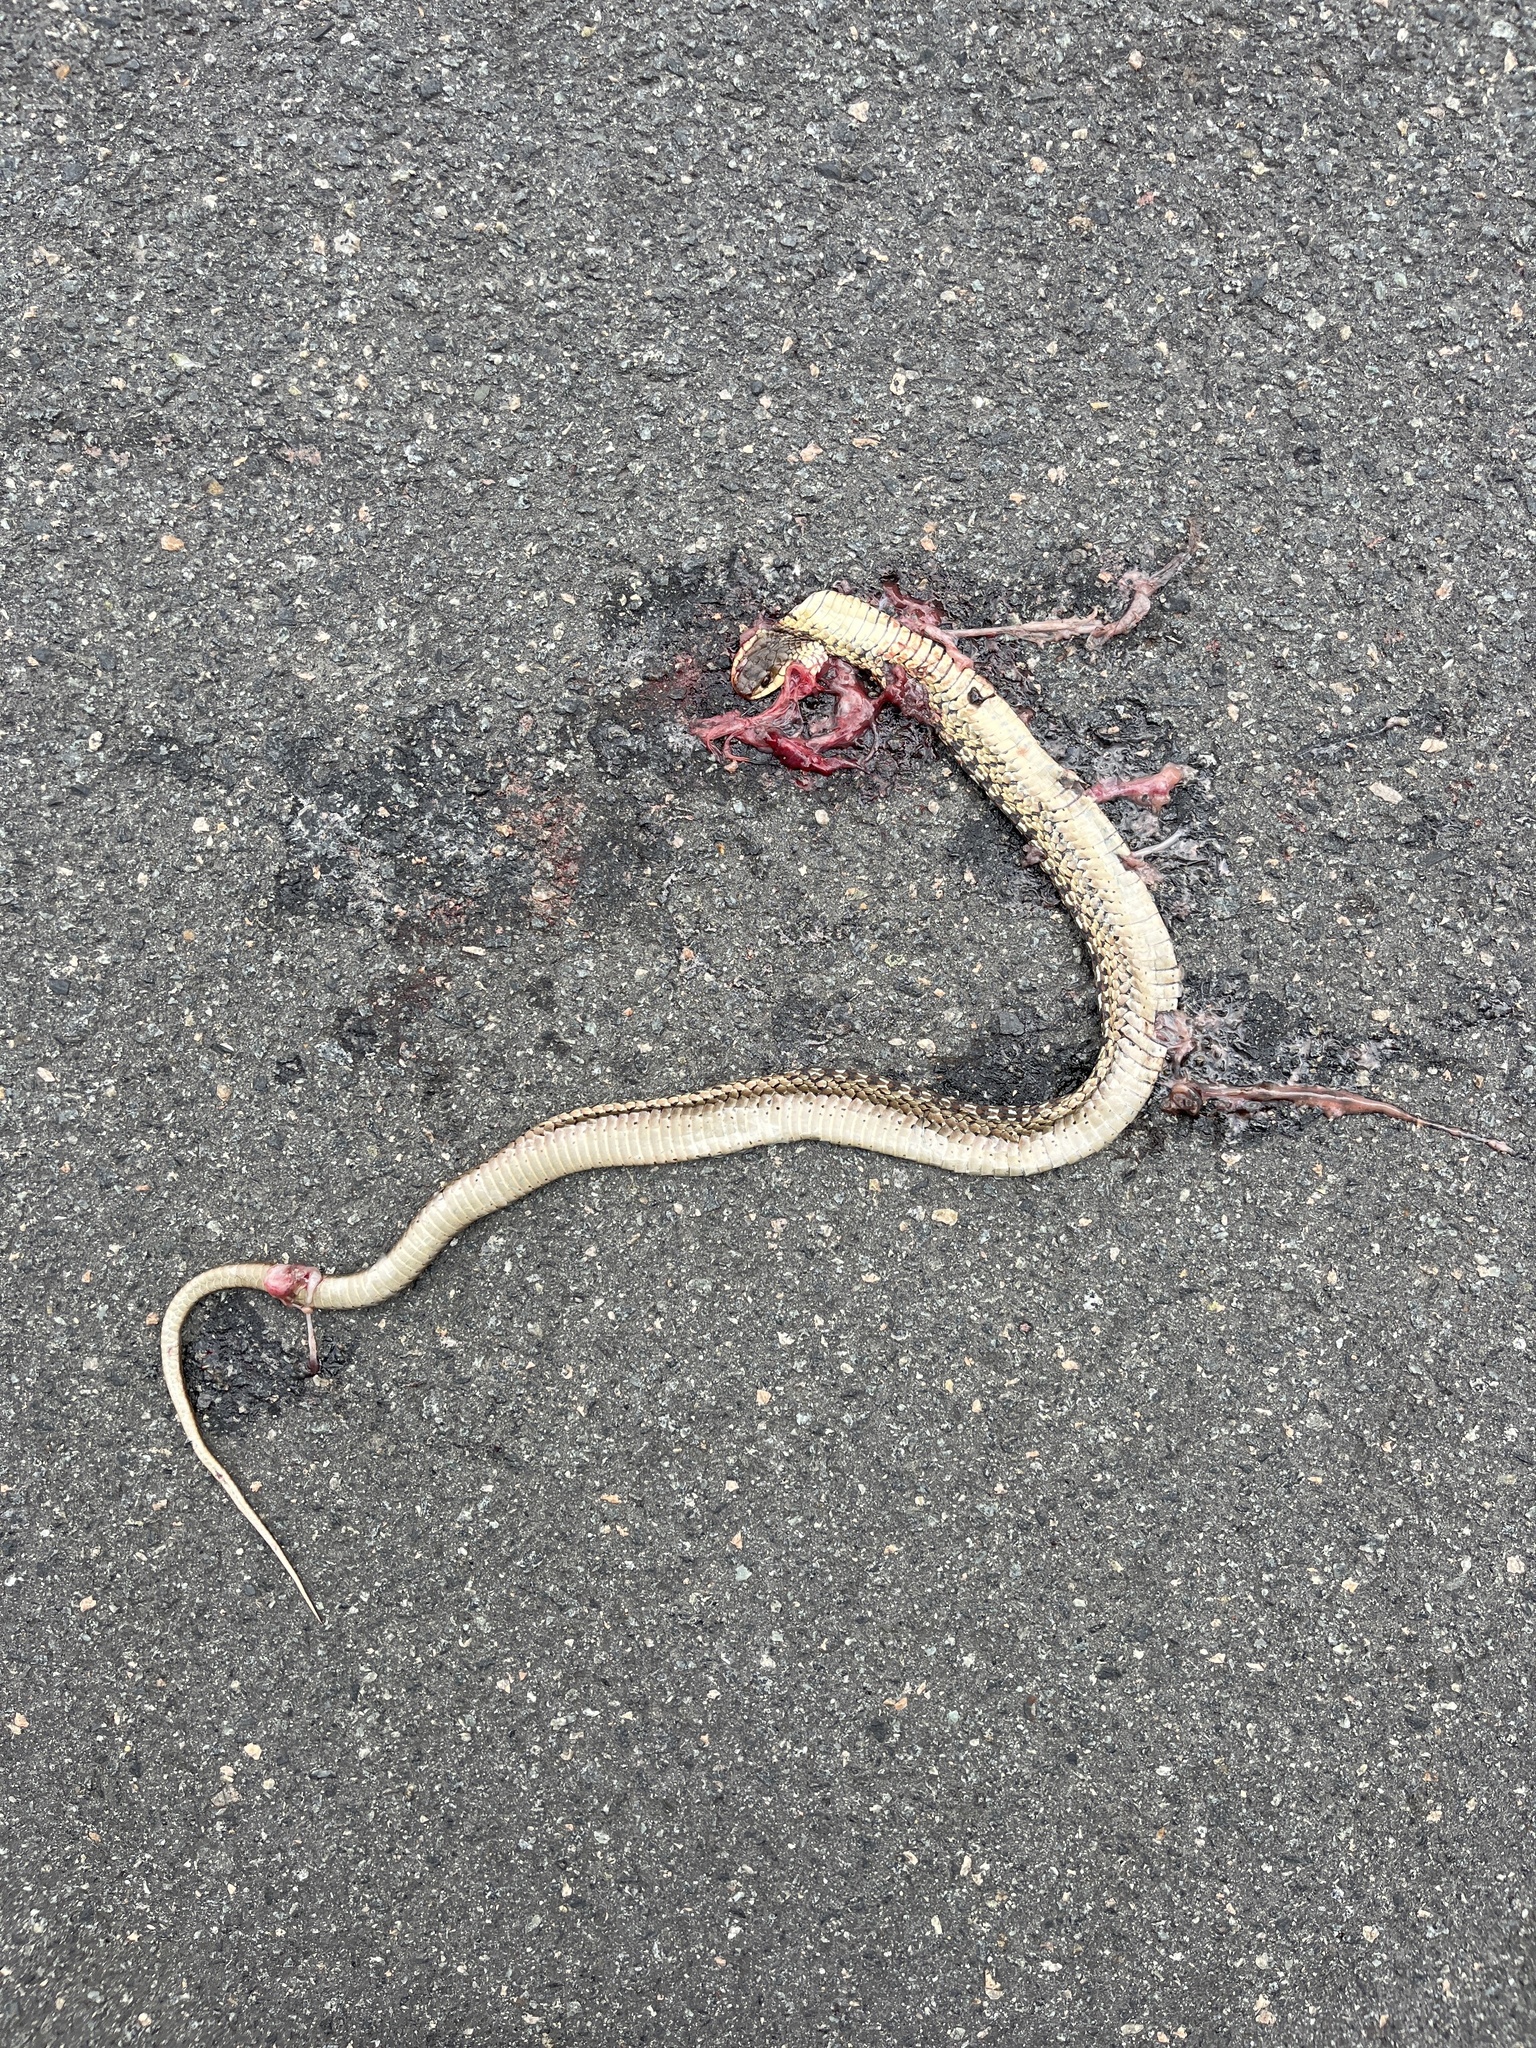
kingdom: Animalia
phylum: Chordata
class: Squamata
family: Colubridae
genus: Thamnophis
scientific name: Thamnophis sirtalis
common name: Common garter snake
